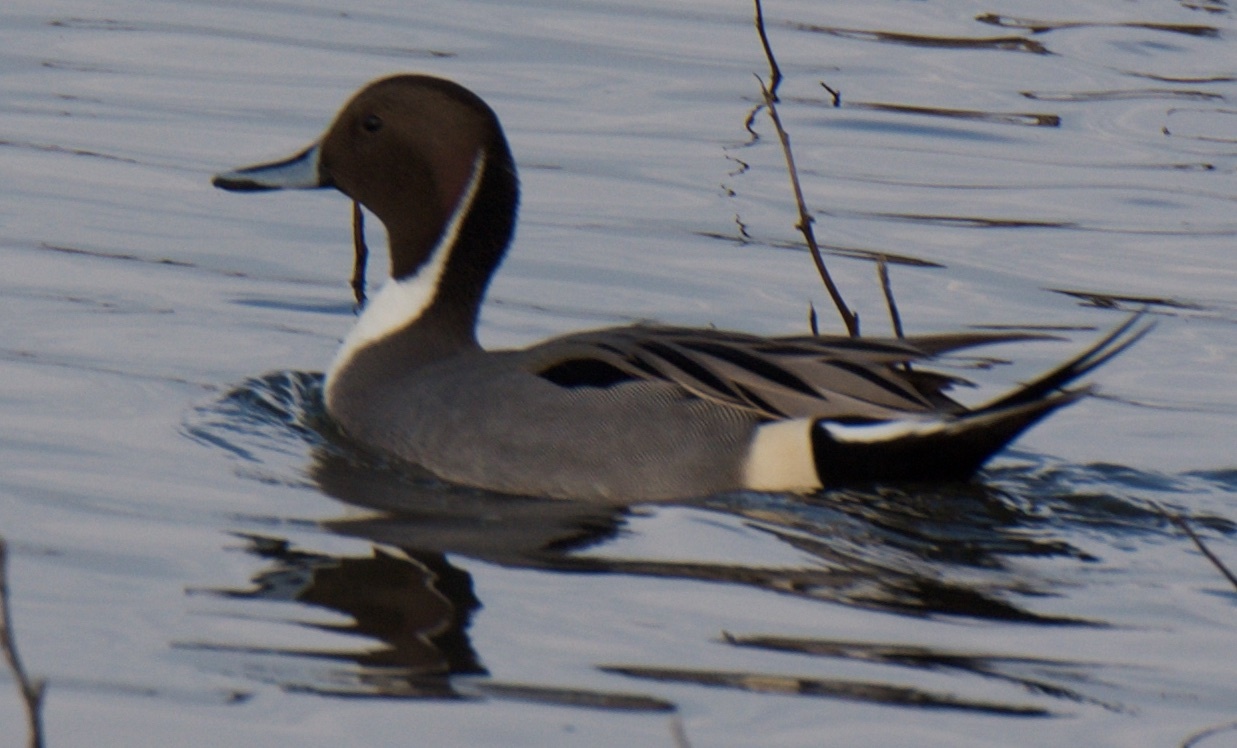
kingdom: Animalia
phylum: Chordata
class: Aves
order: Anseriformes
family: Anatidae
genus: Anas
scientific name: Anas acuta
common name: Northern pintail
